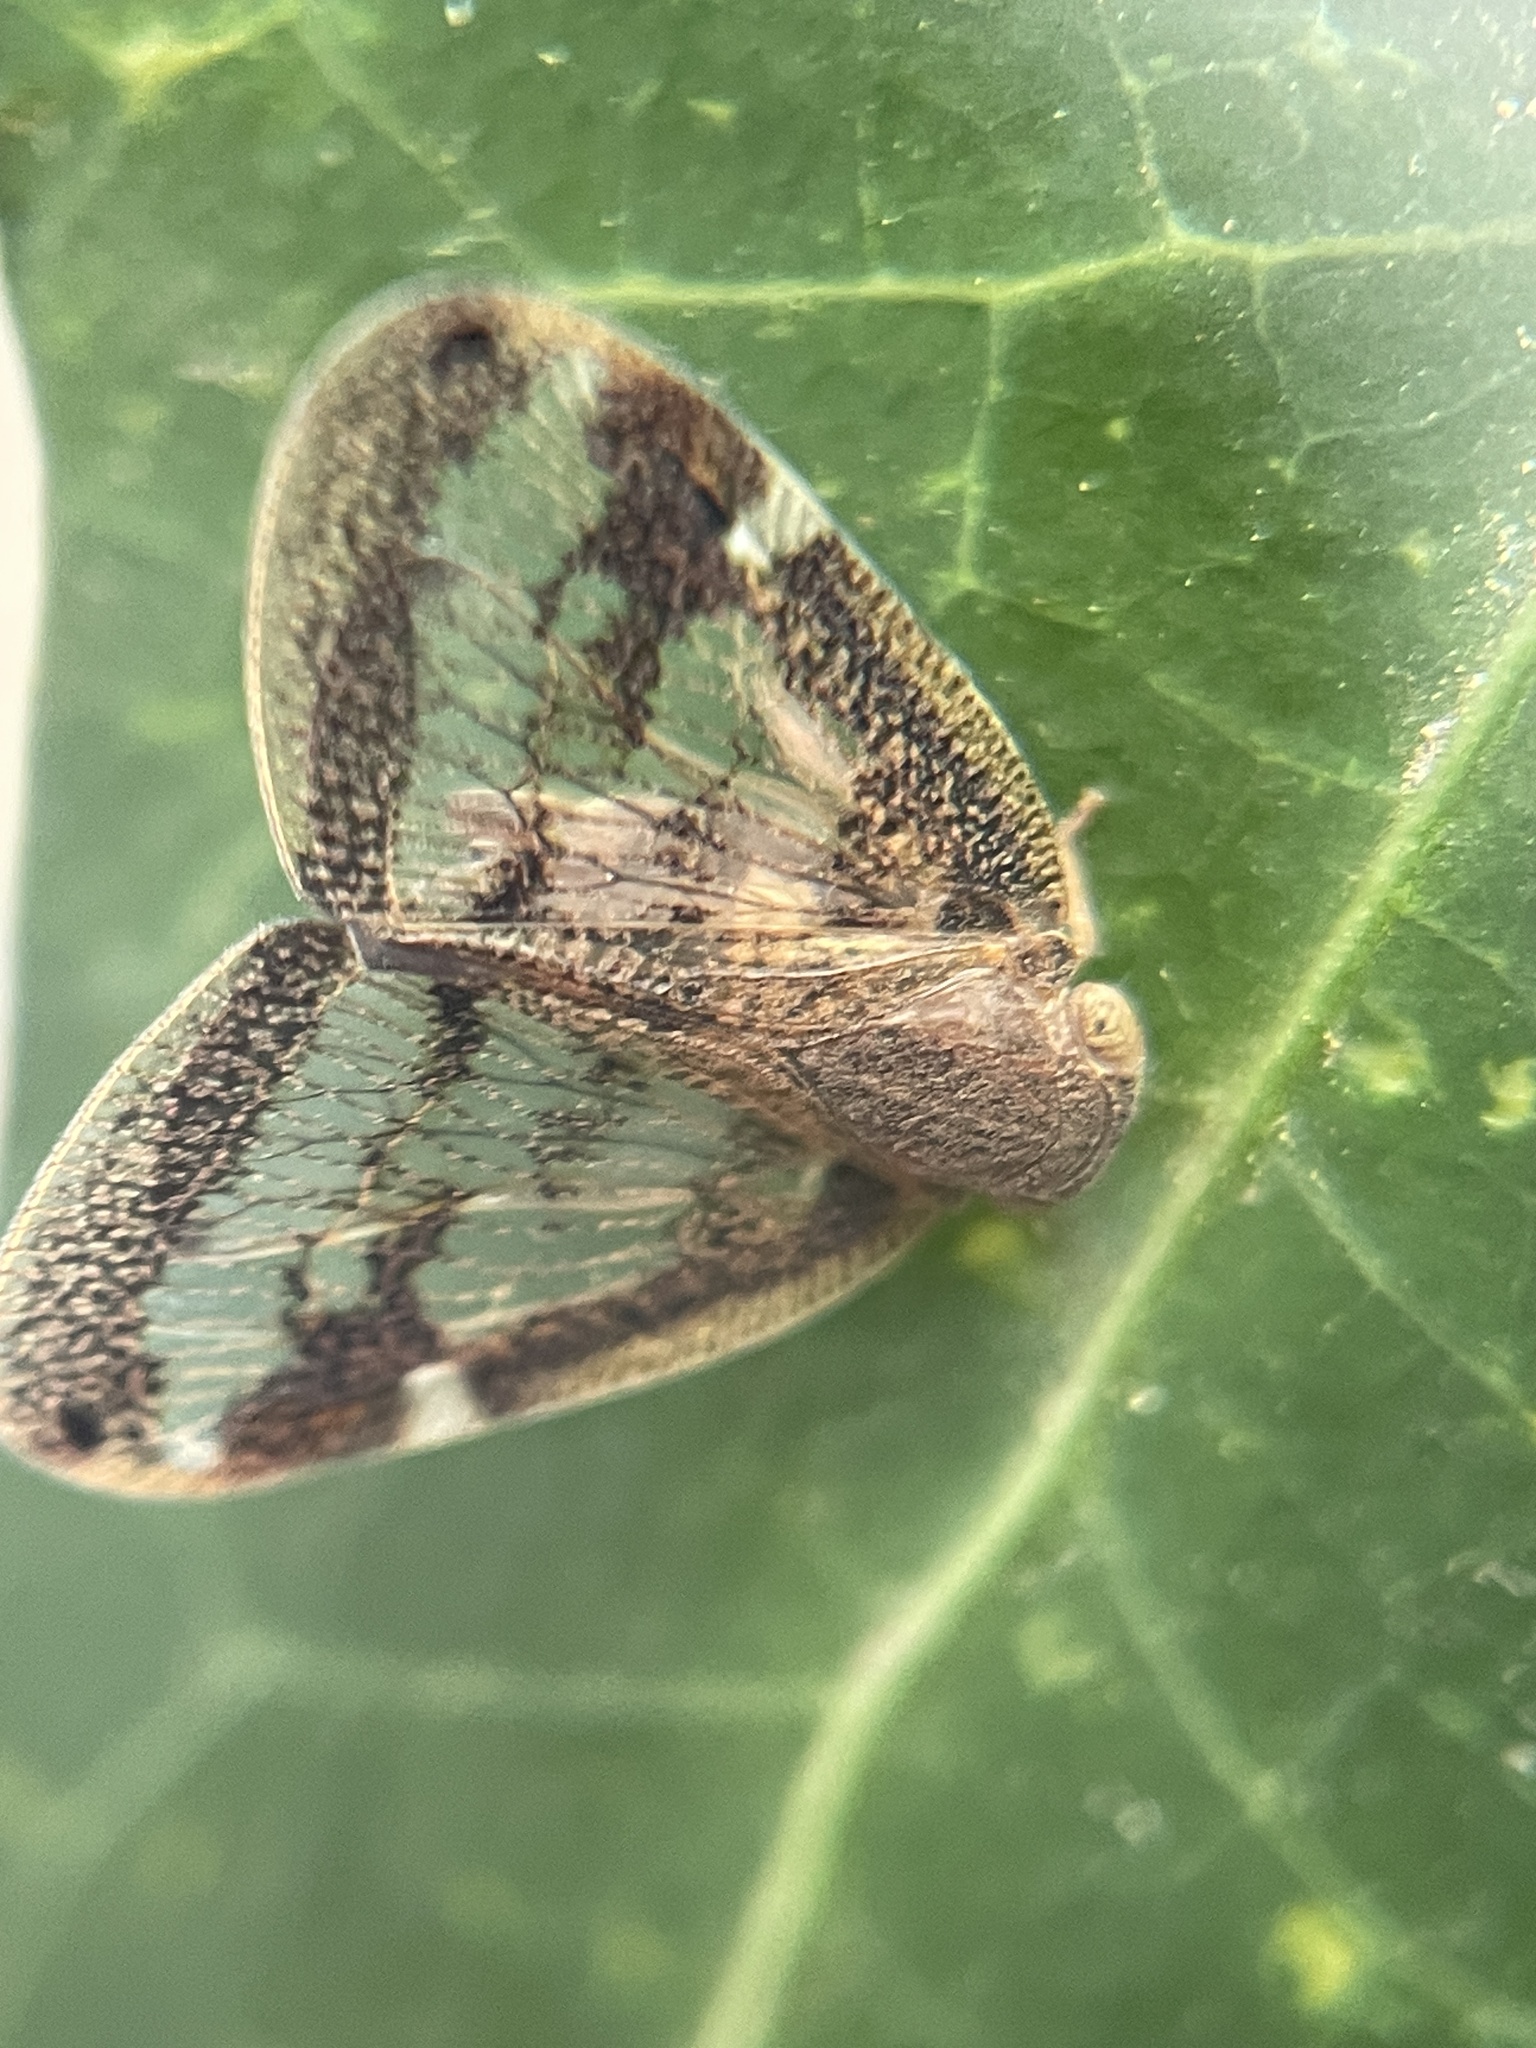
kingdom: Animalia
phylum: Arthropoda
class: Insecta
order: Hemiptera
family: Ricaniidae
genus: Scolypopa
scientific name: Scolypopa australis
